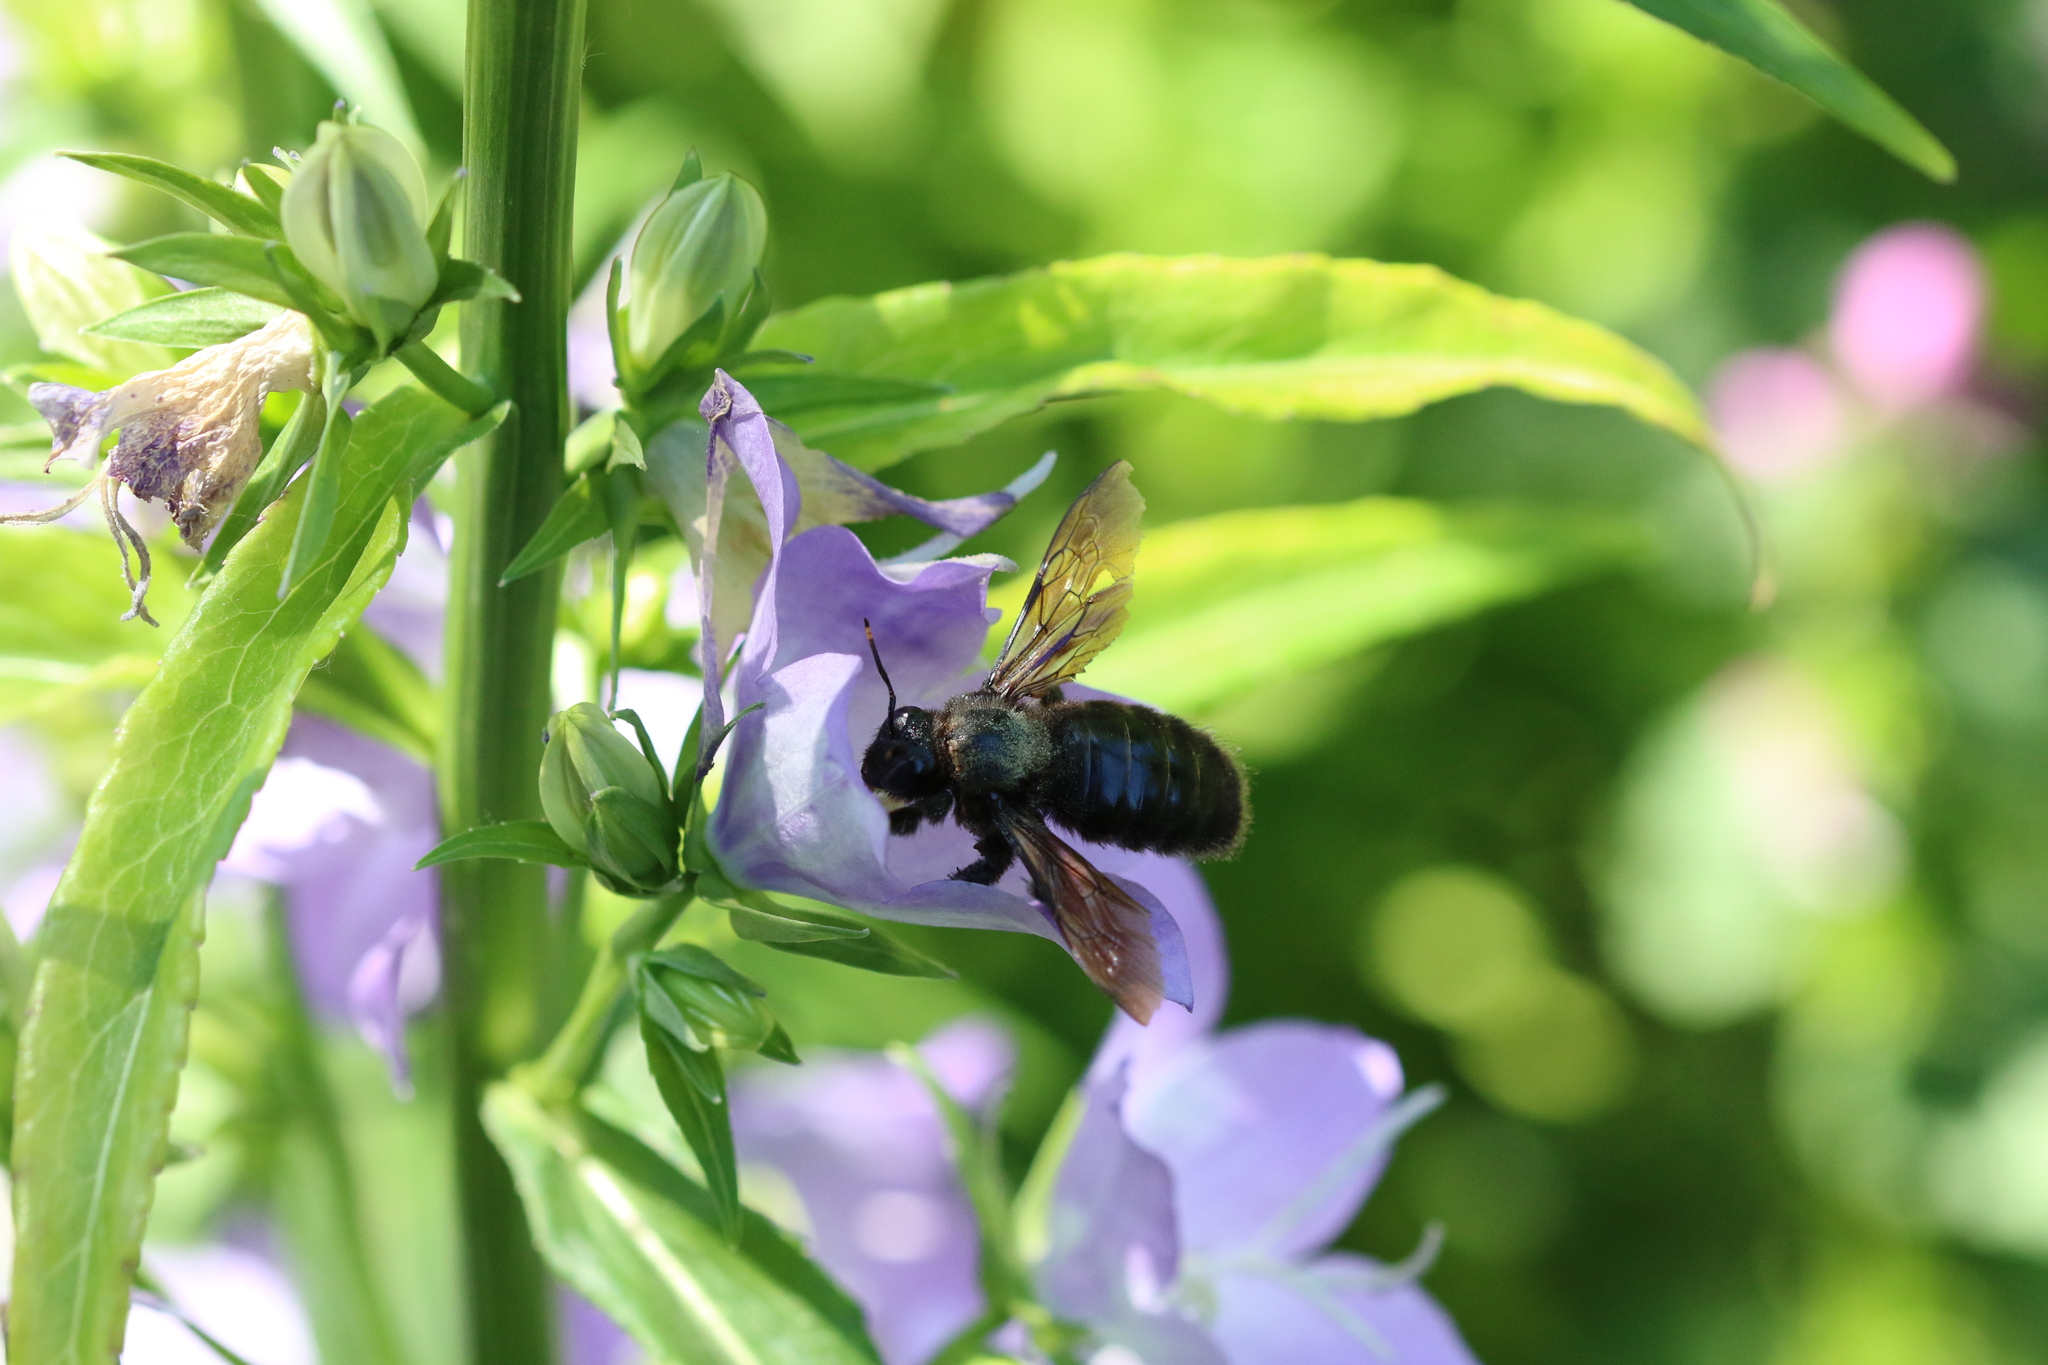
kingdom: Animalia
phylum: Arthropoda
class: Insecta
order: Hymenoptera
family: Apidae
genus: Xylocopa
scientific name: Xylocopa violacea
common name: Violet carpenter bee
